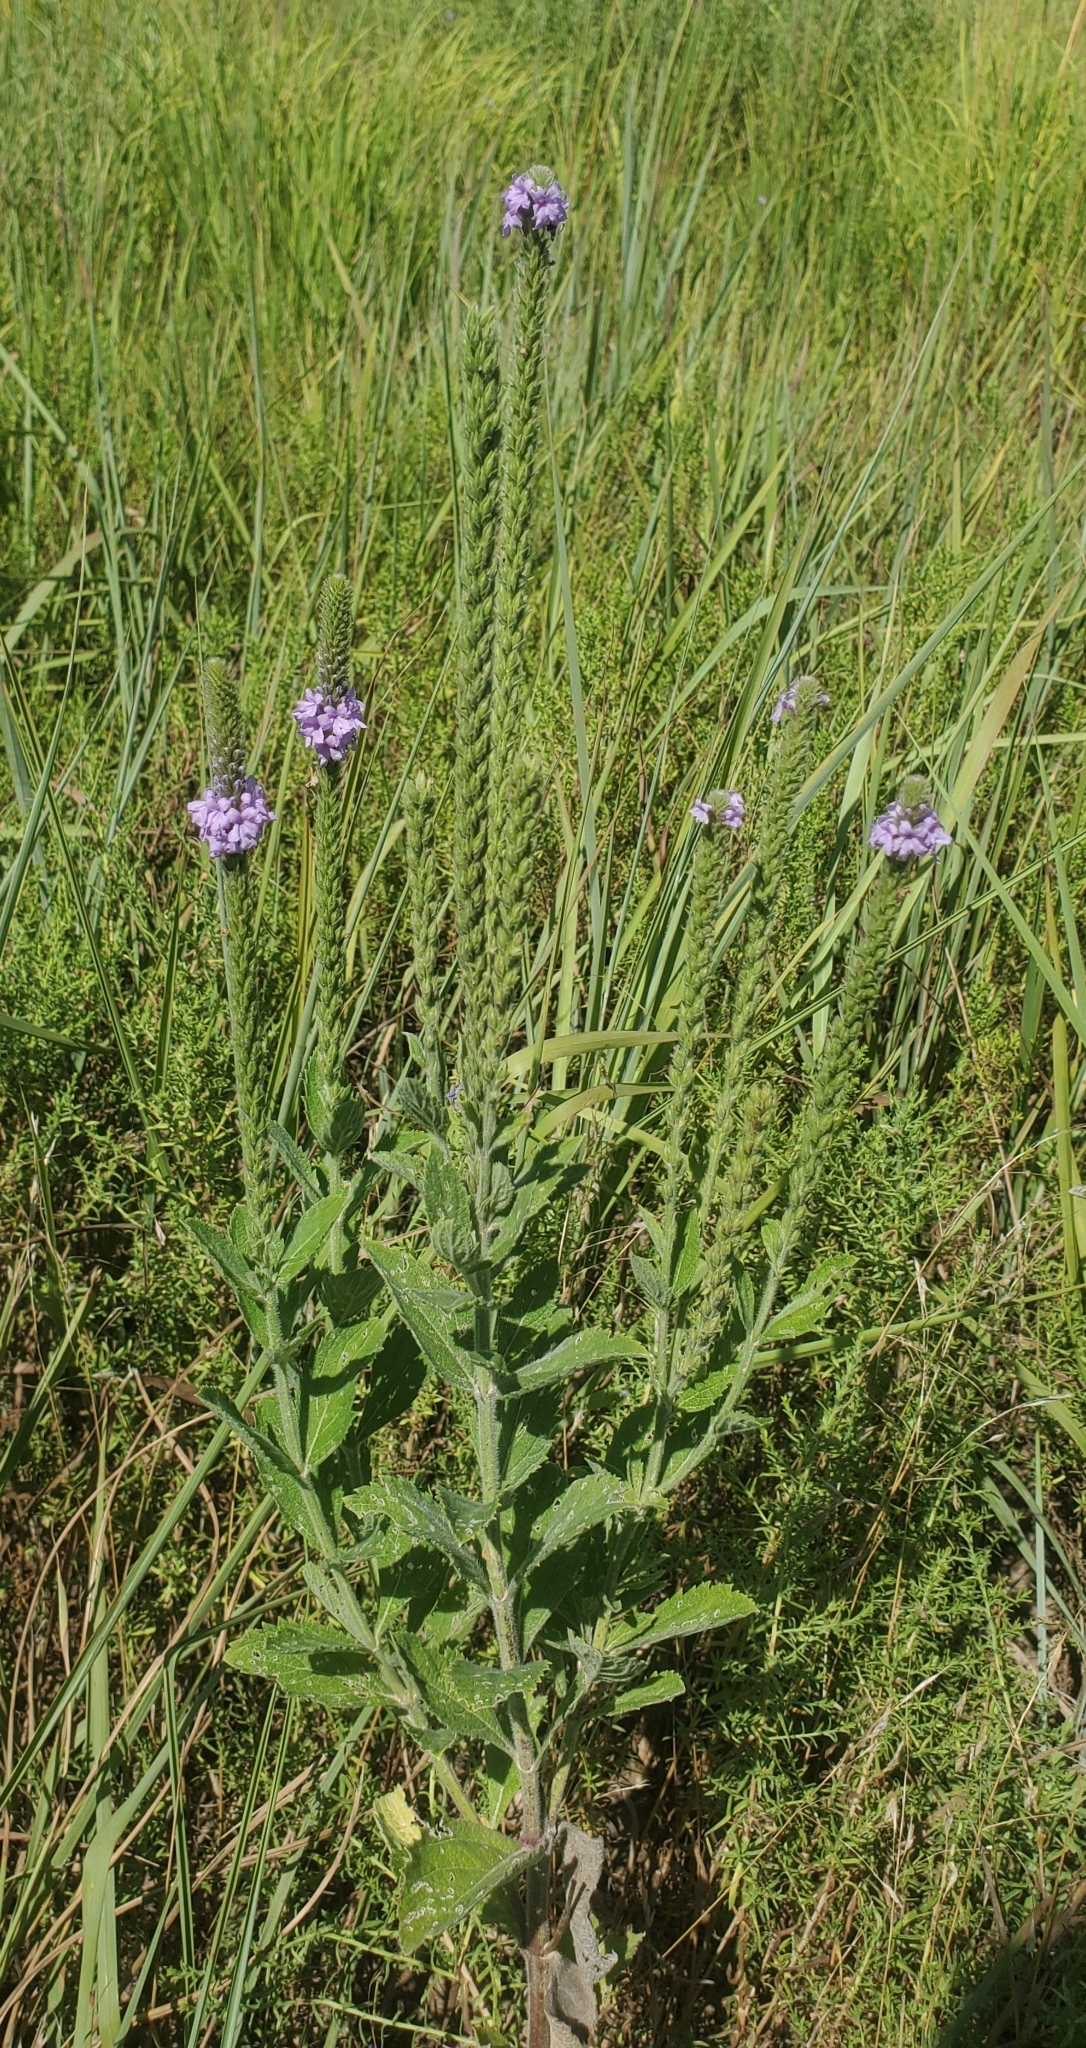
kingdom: Plantae
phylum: Tracheophyta
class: Magnoliopsida
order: Lamiales
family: Verbenaceae
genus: Verbena
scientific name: Verbena stricta
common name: Hoary vervain
